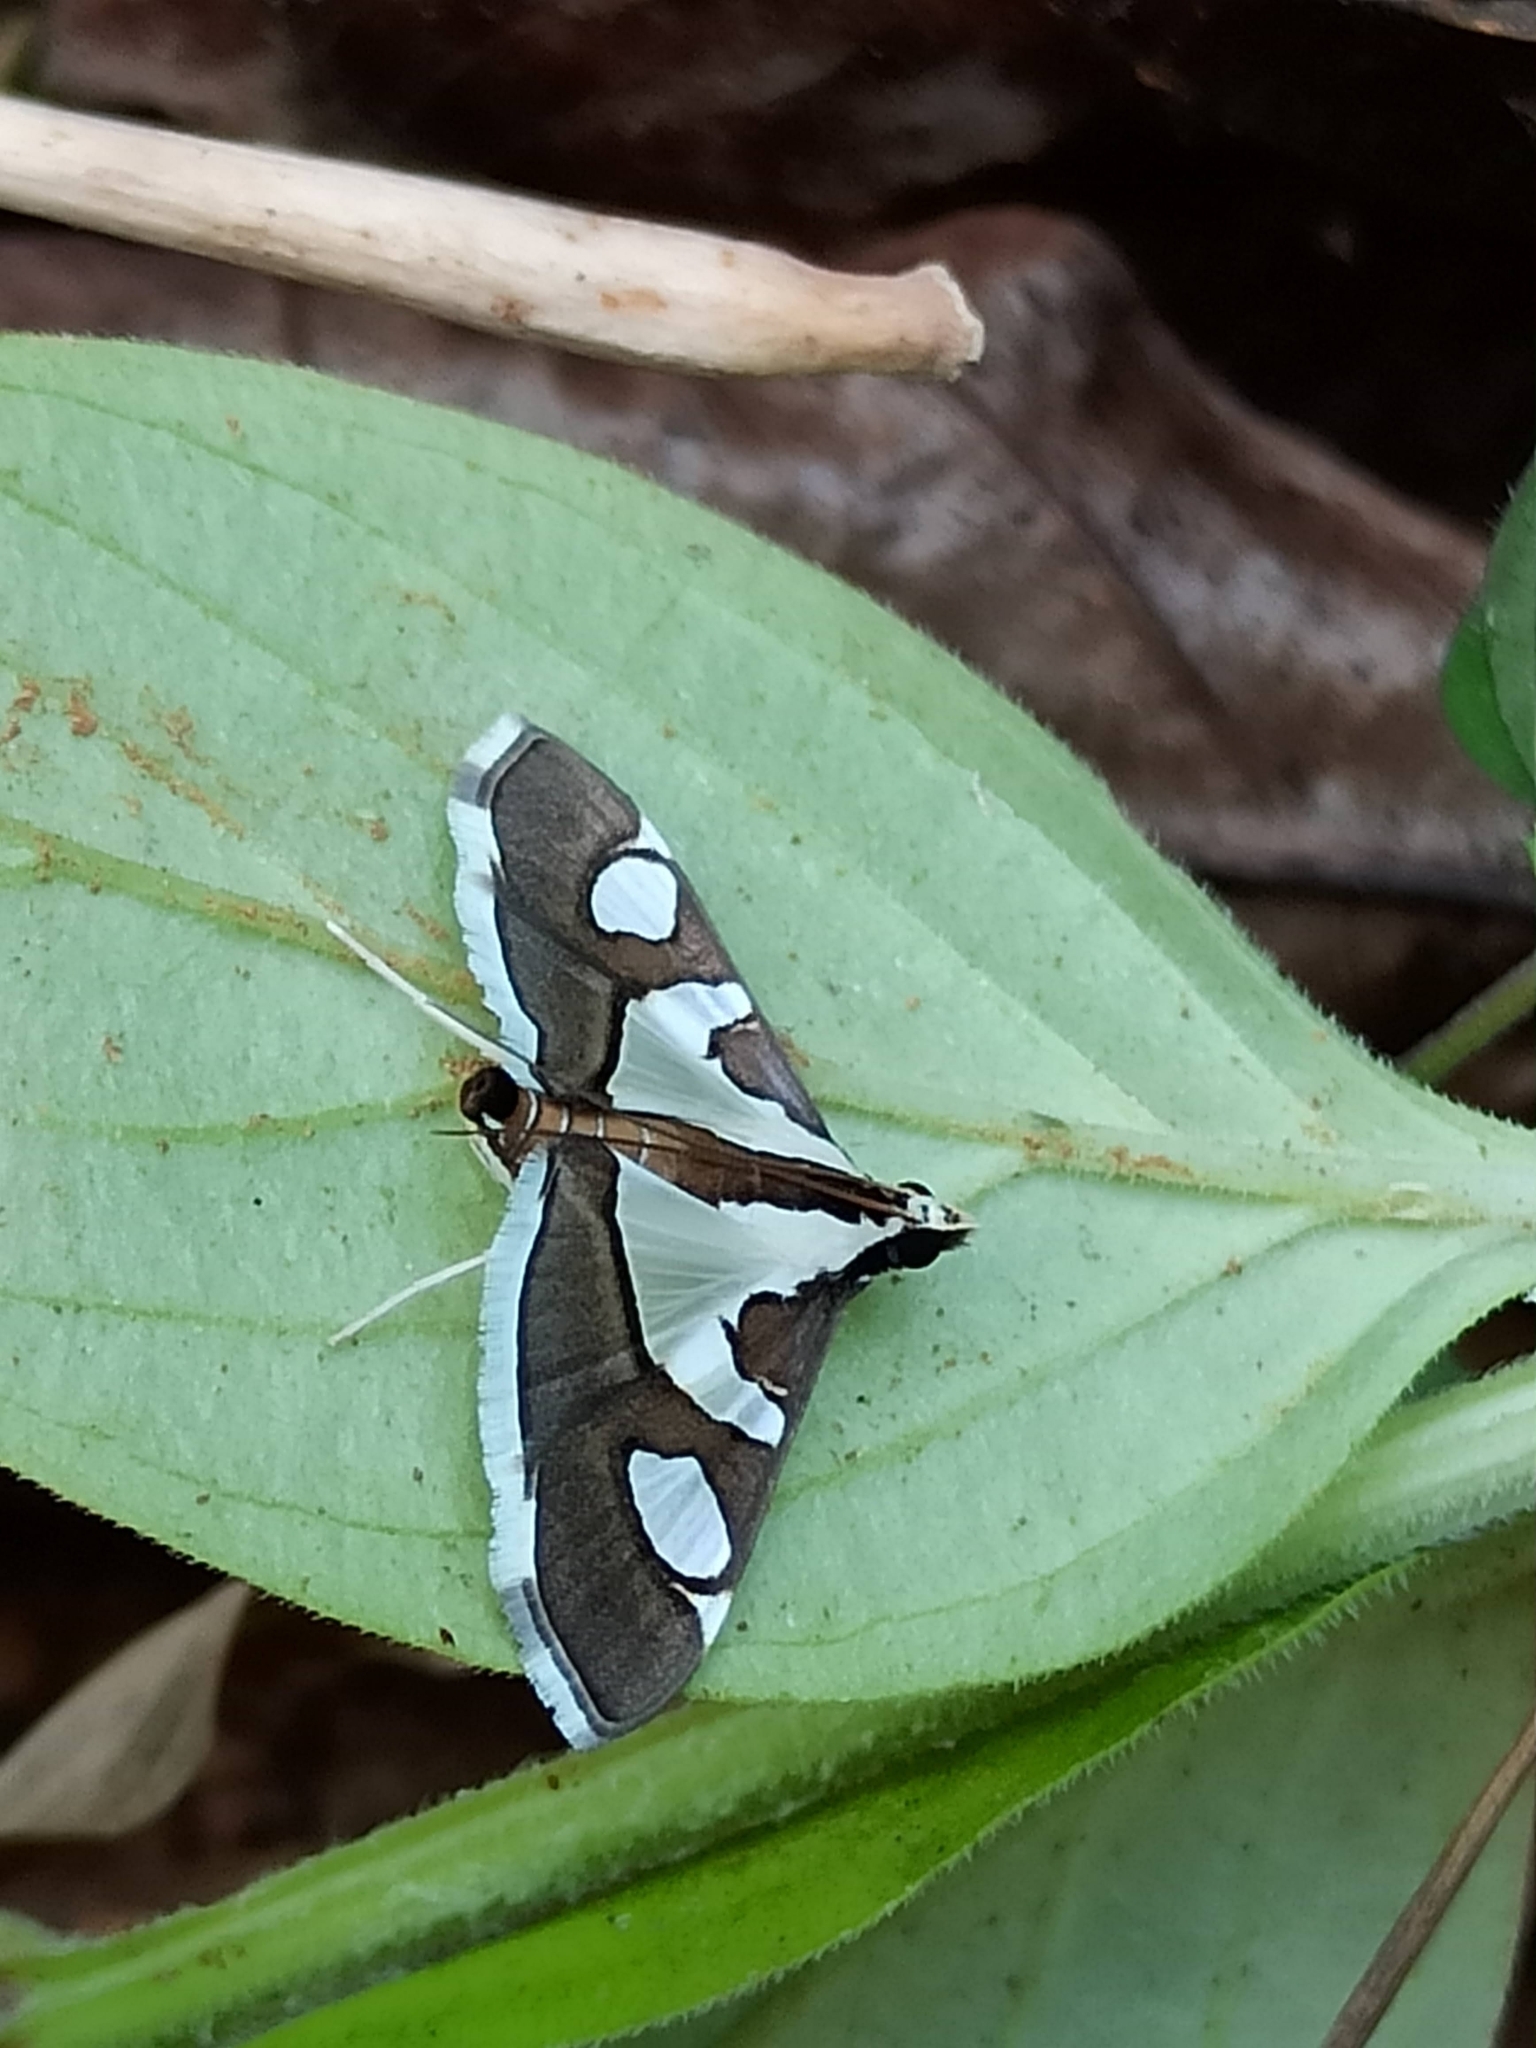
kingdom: Animalia
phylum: Arthropoda
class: Insecta
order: Lepidoptera
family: Crambidae
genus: Glyphodes
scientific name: Glyphodes bicolor
